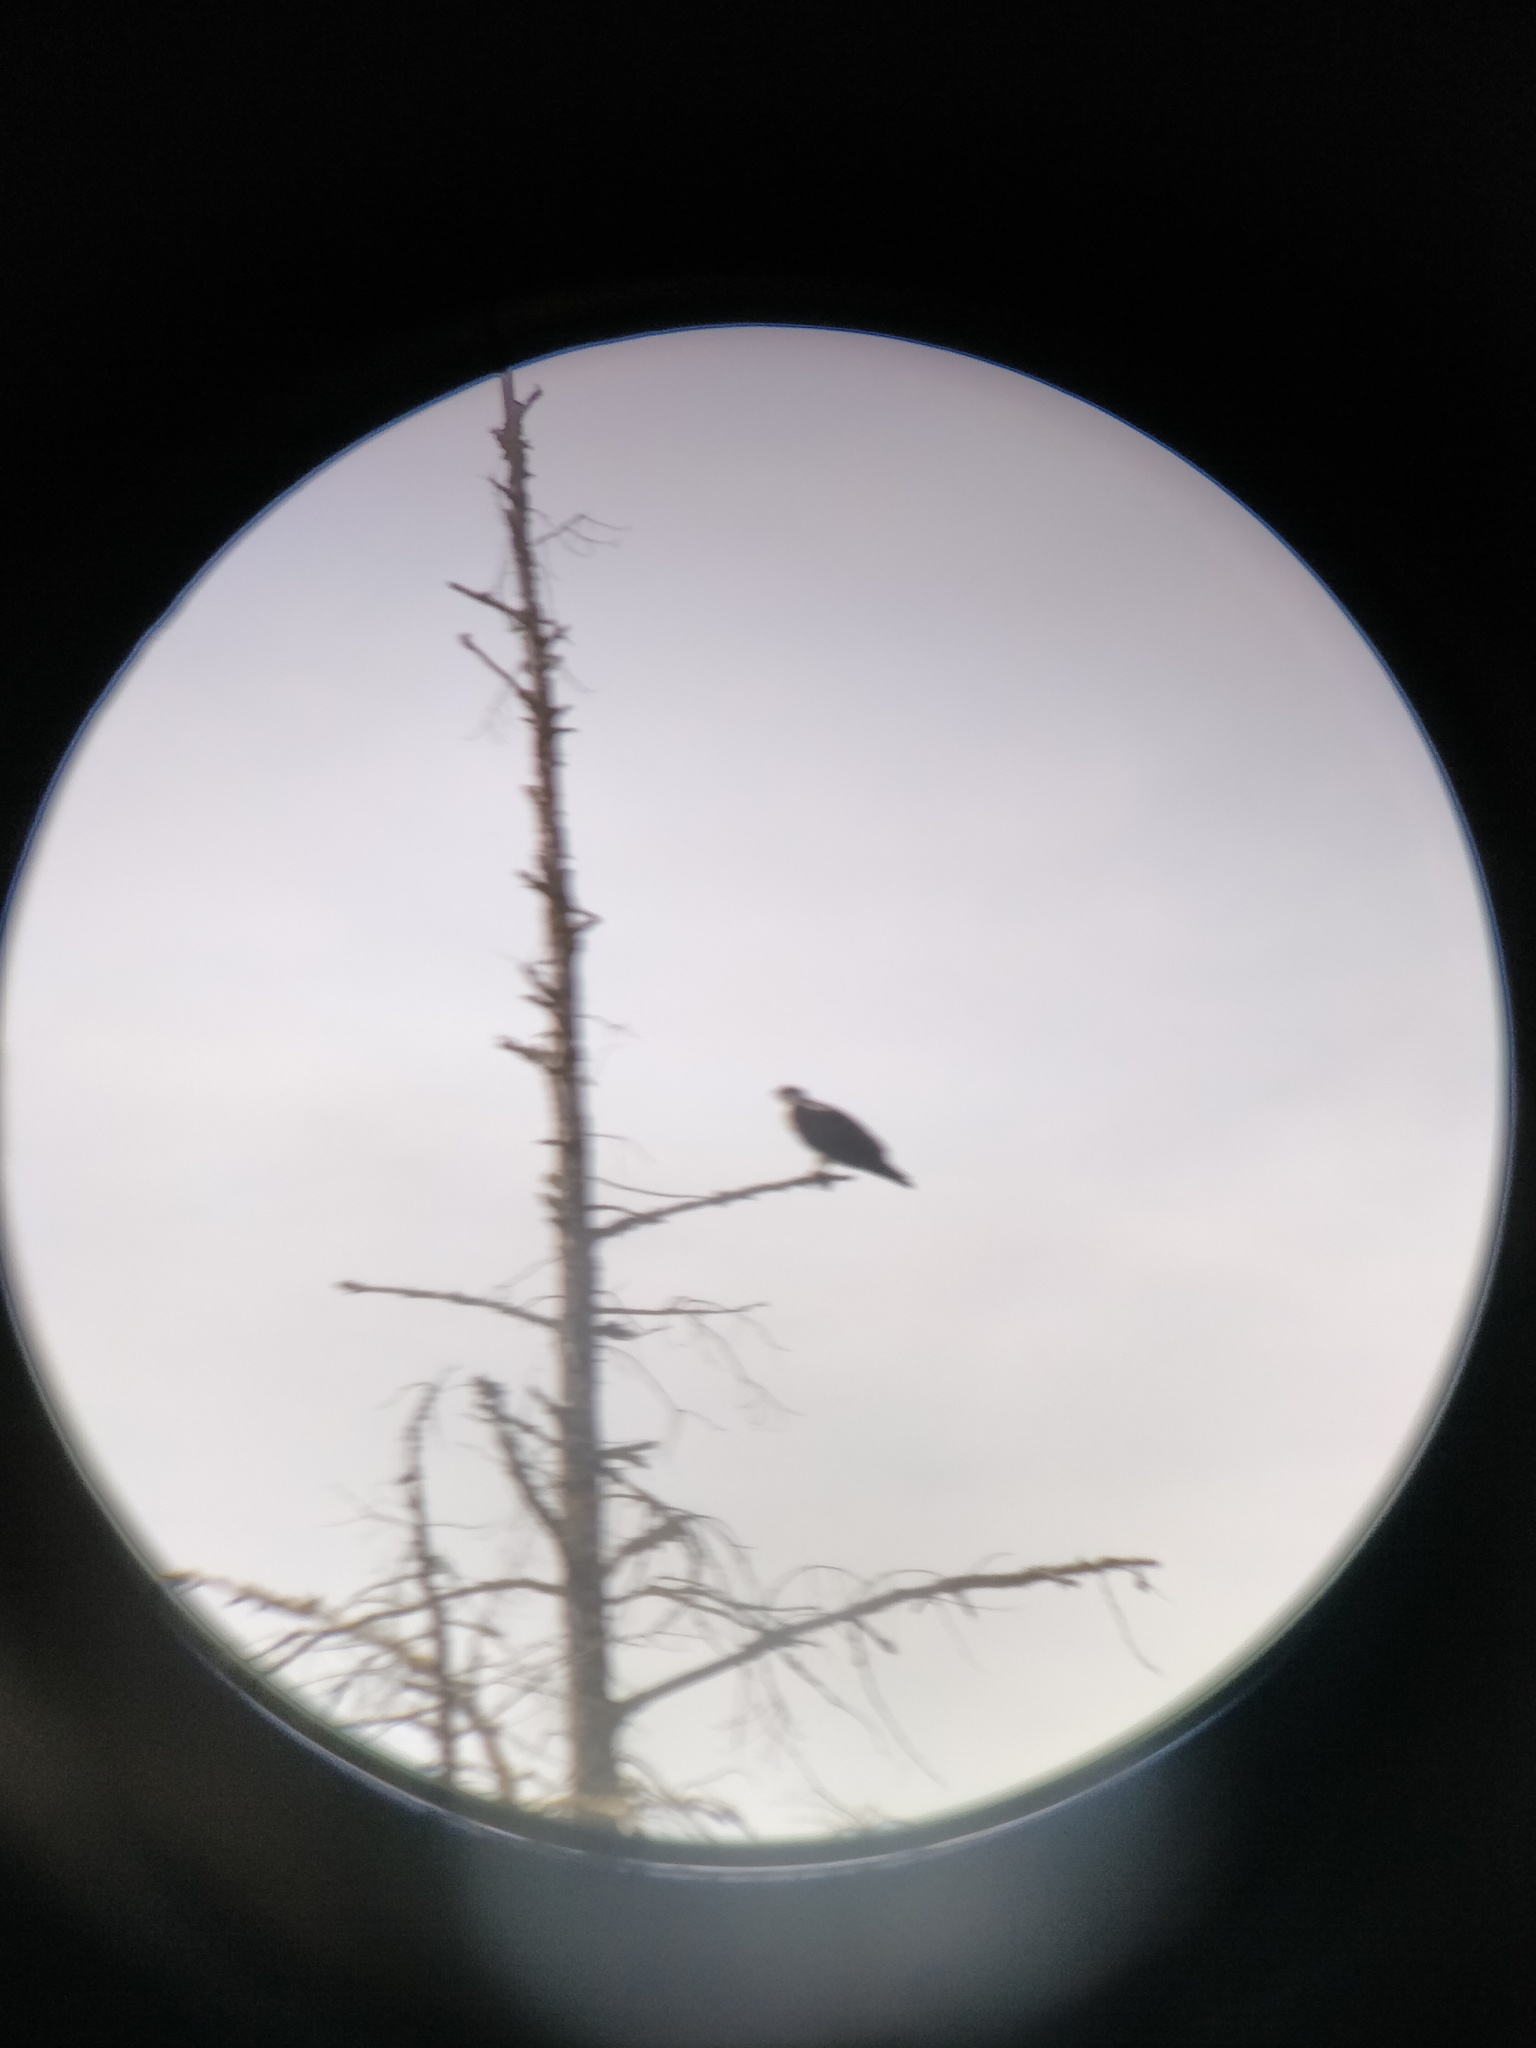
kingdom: Animalia
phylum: Chordata
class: Aves
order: Accipitriformes
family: Pandionidae
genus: Pandion
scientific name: Pandion haliaetus
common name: Osprey
